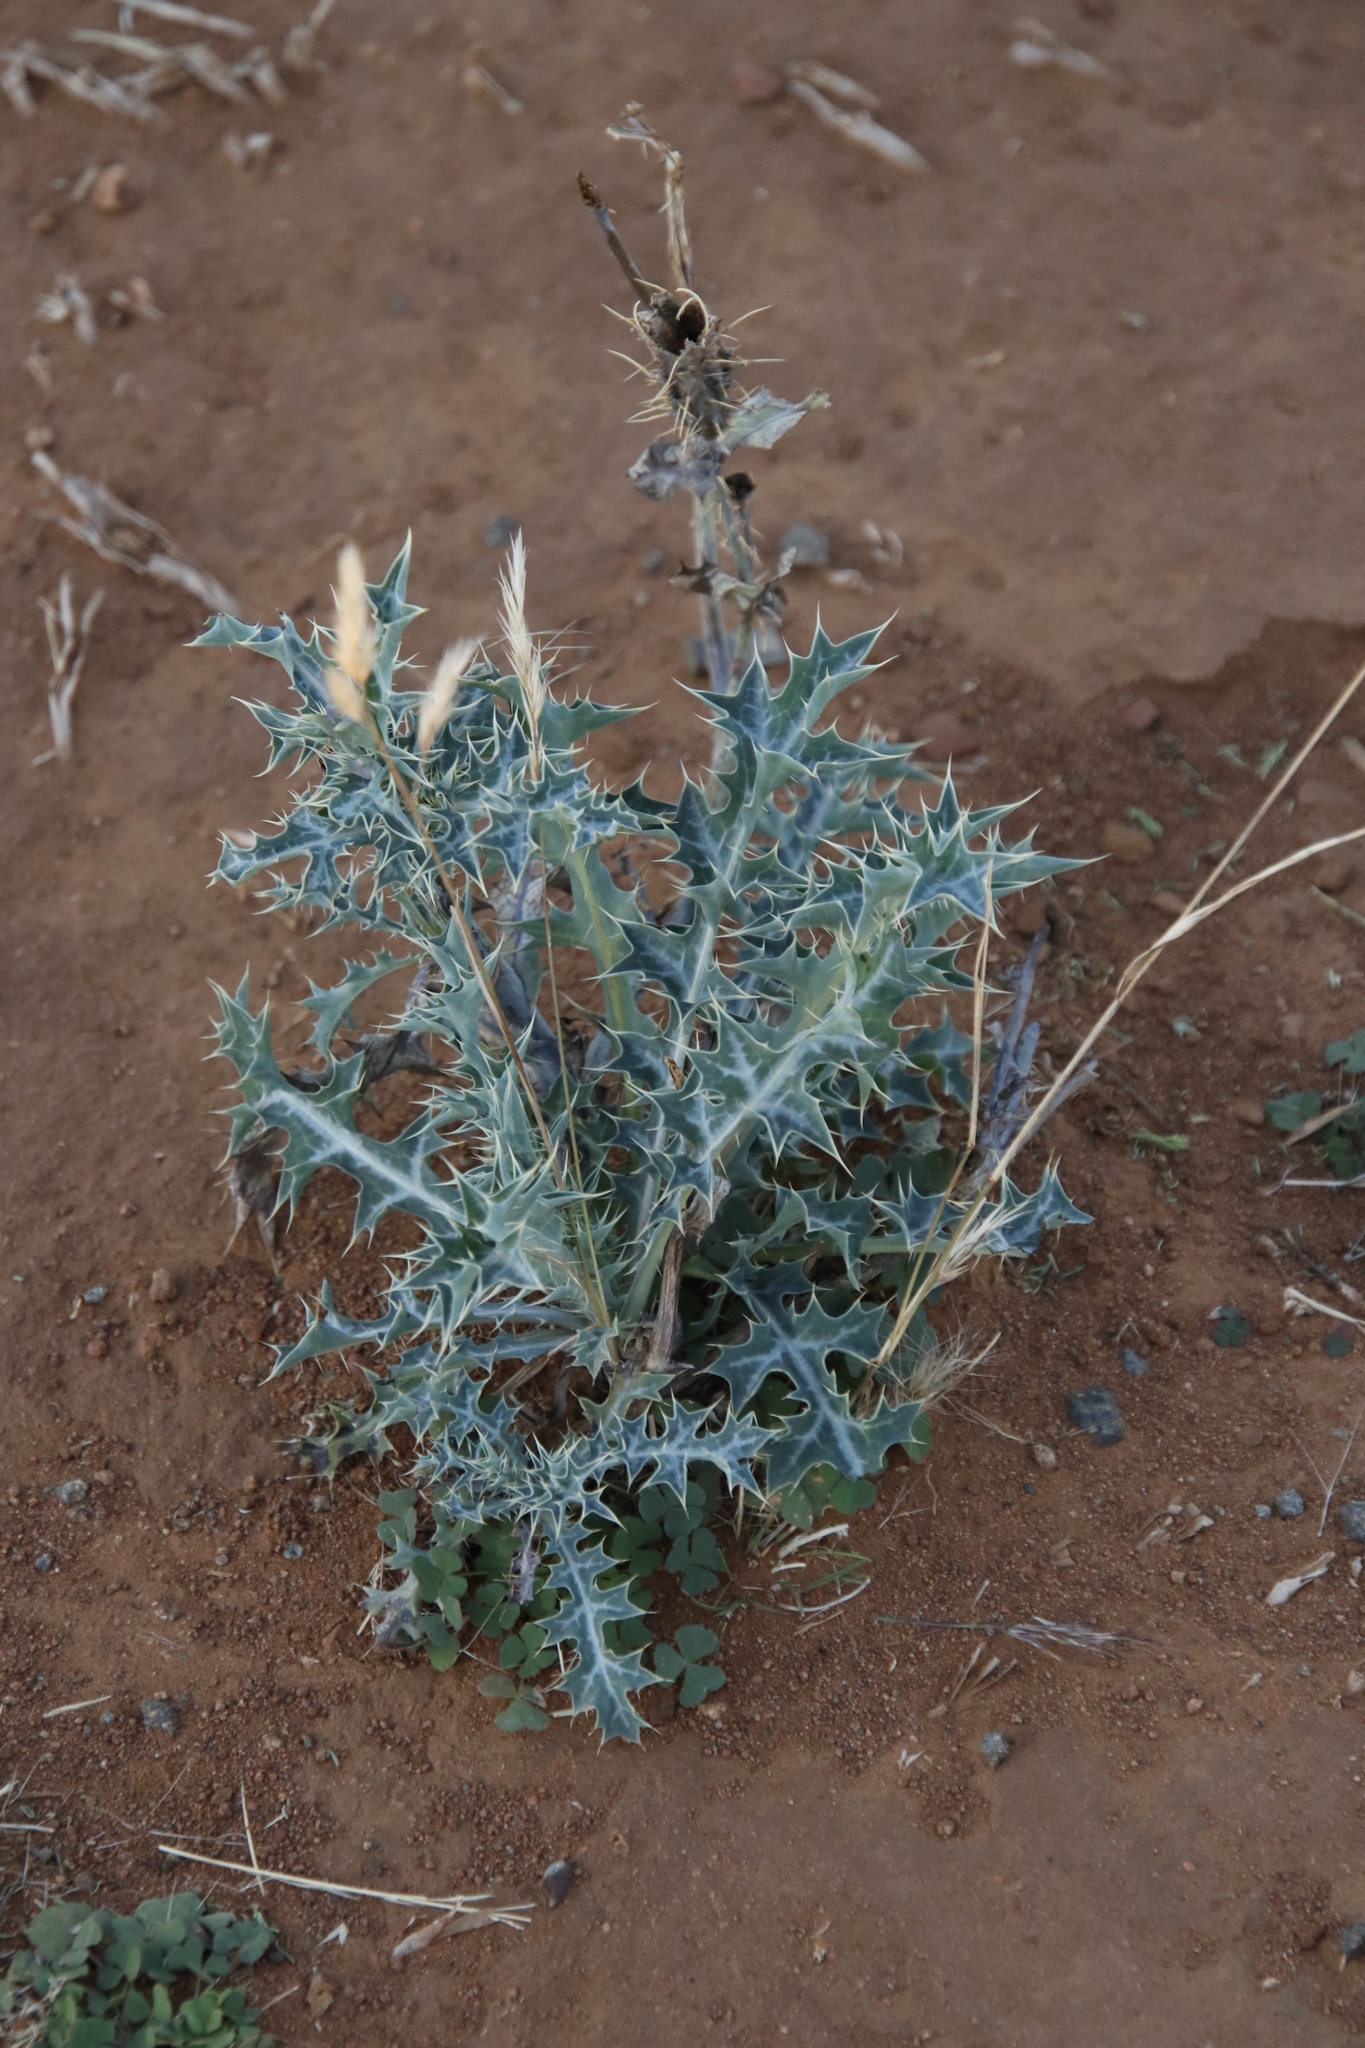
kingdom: Plantae
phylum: Tracheophyta
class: Magnoliopsida
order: Ranunculales
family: Papaveraceae
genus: Argemone
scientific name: Argemone ochroleuca
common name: White-flower mexican-poppy
